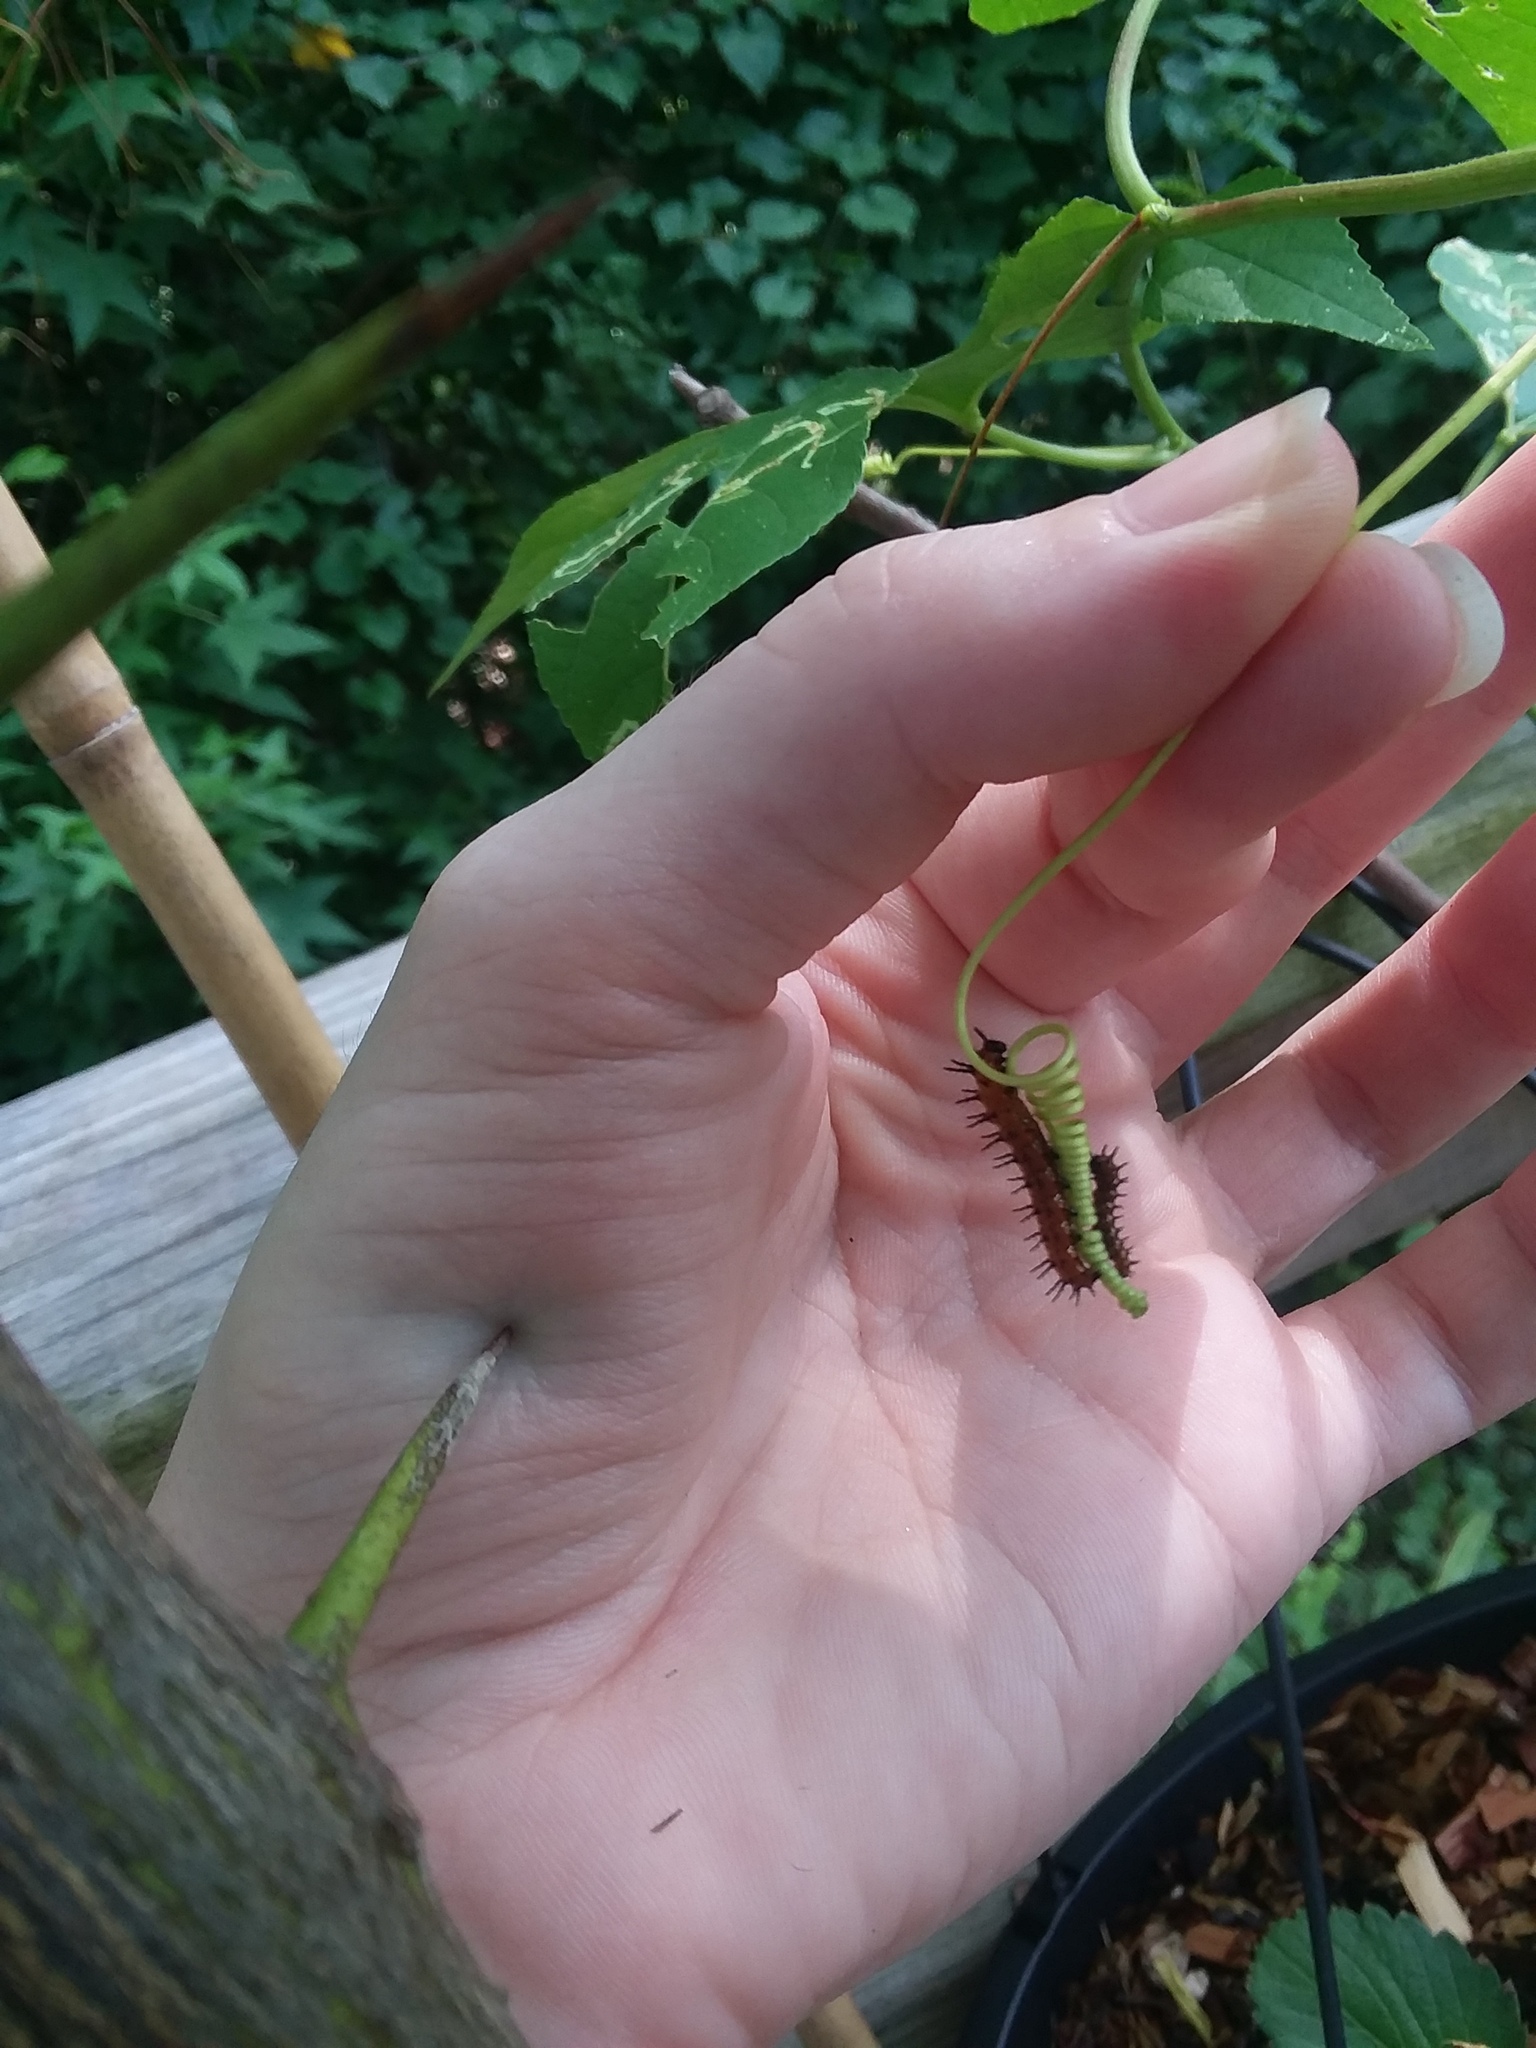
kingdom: Animalia
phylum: Arthropoda
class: Insecta
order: Lepidoptera
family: Nymphalidae
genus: Dione
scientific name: Dione vanillae
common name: Gulf fritillary
